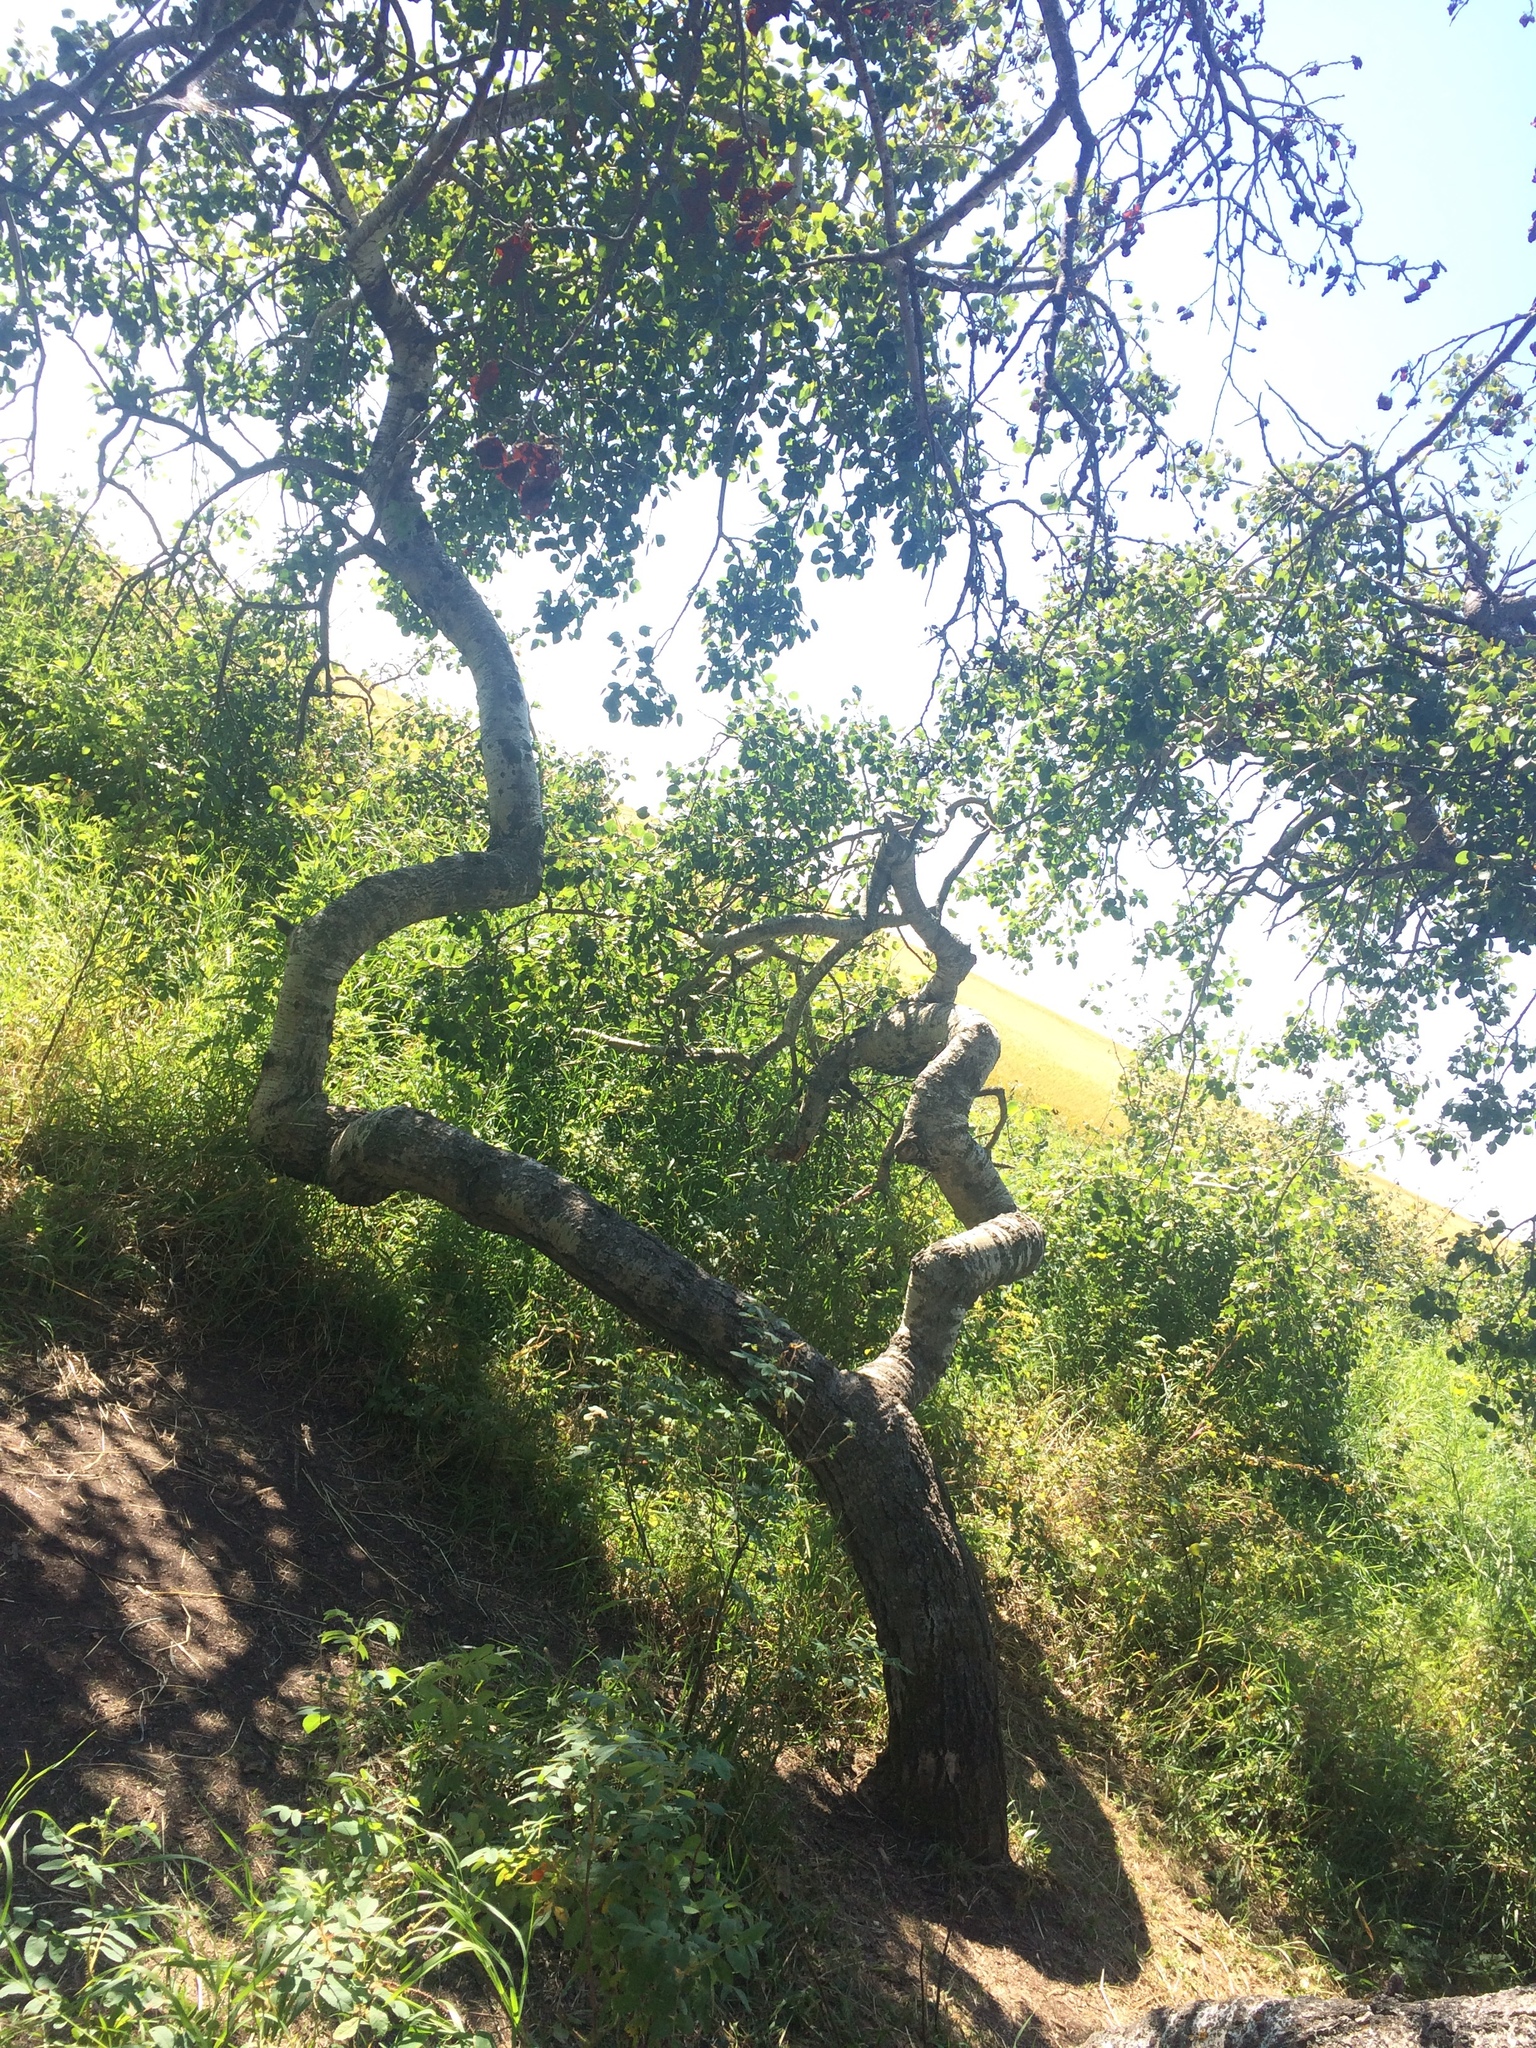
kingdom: Plantae
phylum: Tracheophyta
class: Magnoliopsida
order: Malpighiales
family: Salicaceae
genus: Populus
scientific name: Populus tremuloides
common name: Quaking aspen
